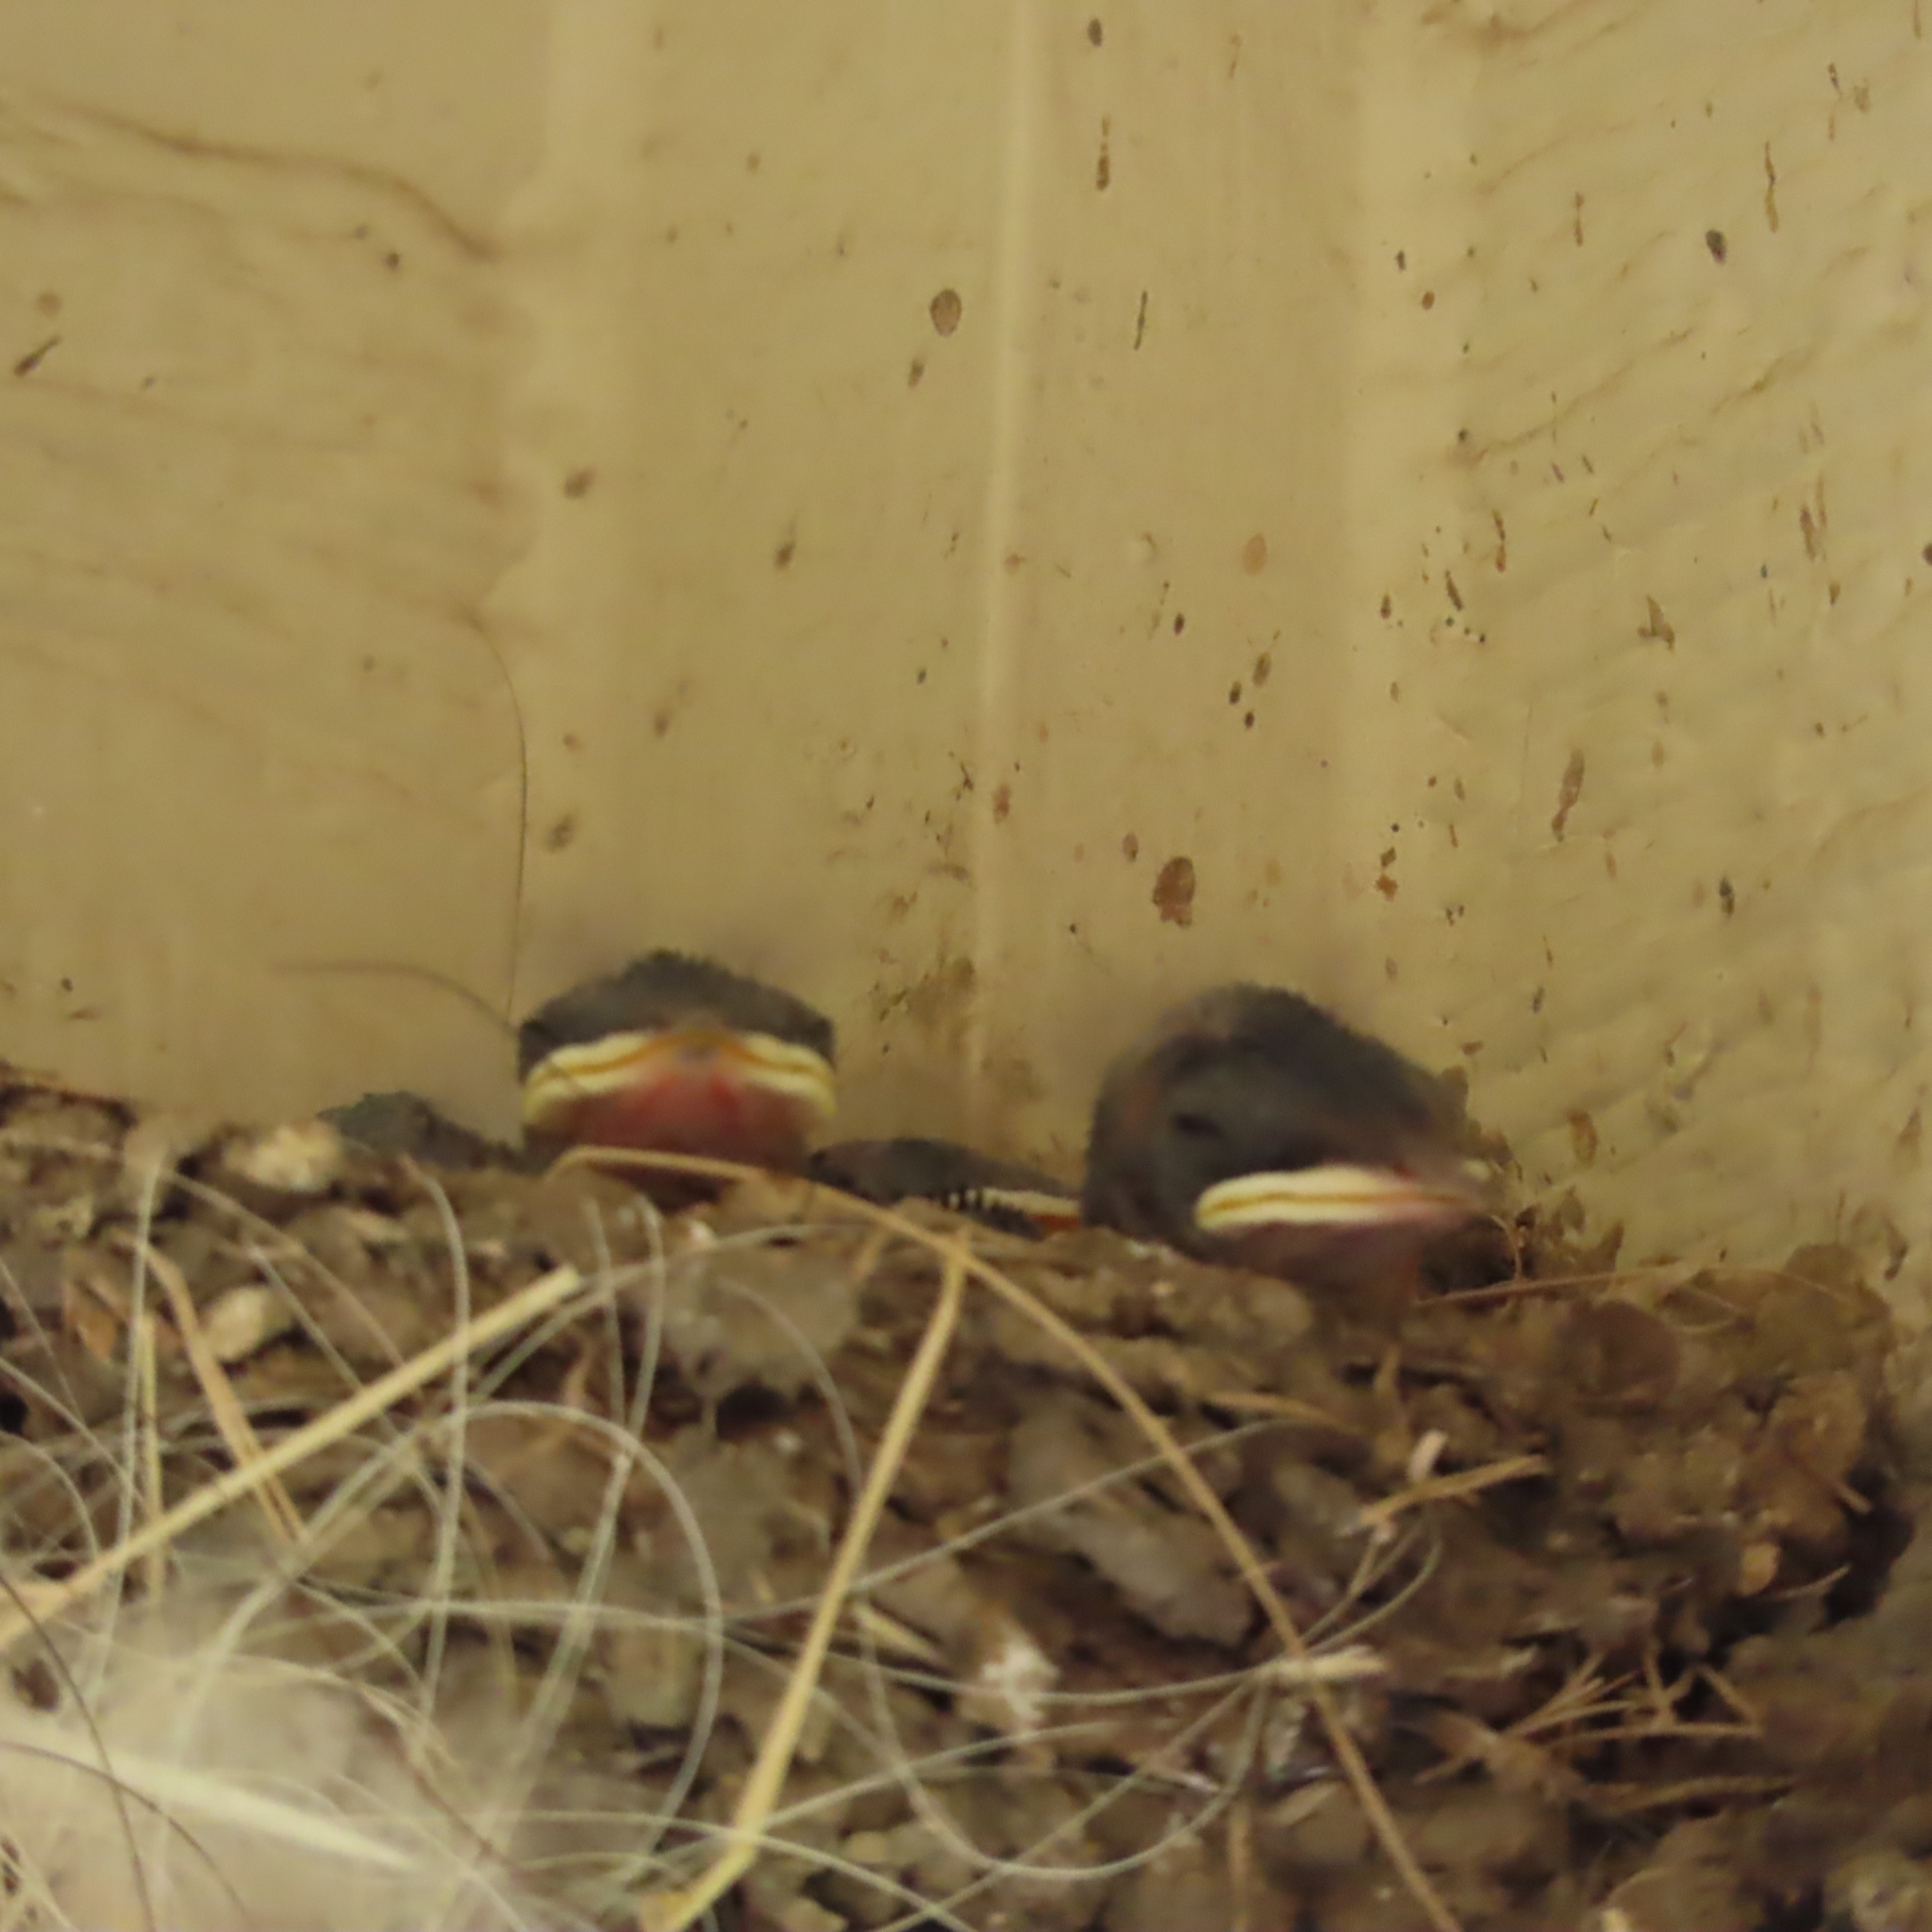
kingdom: Animalia
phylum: Chordata
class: Aves
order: Passeriformes
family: Hirundinidae
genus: Hirundo
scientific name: Hirundo rustica
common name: Barn swallow
